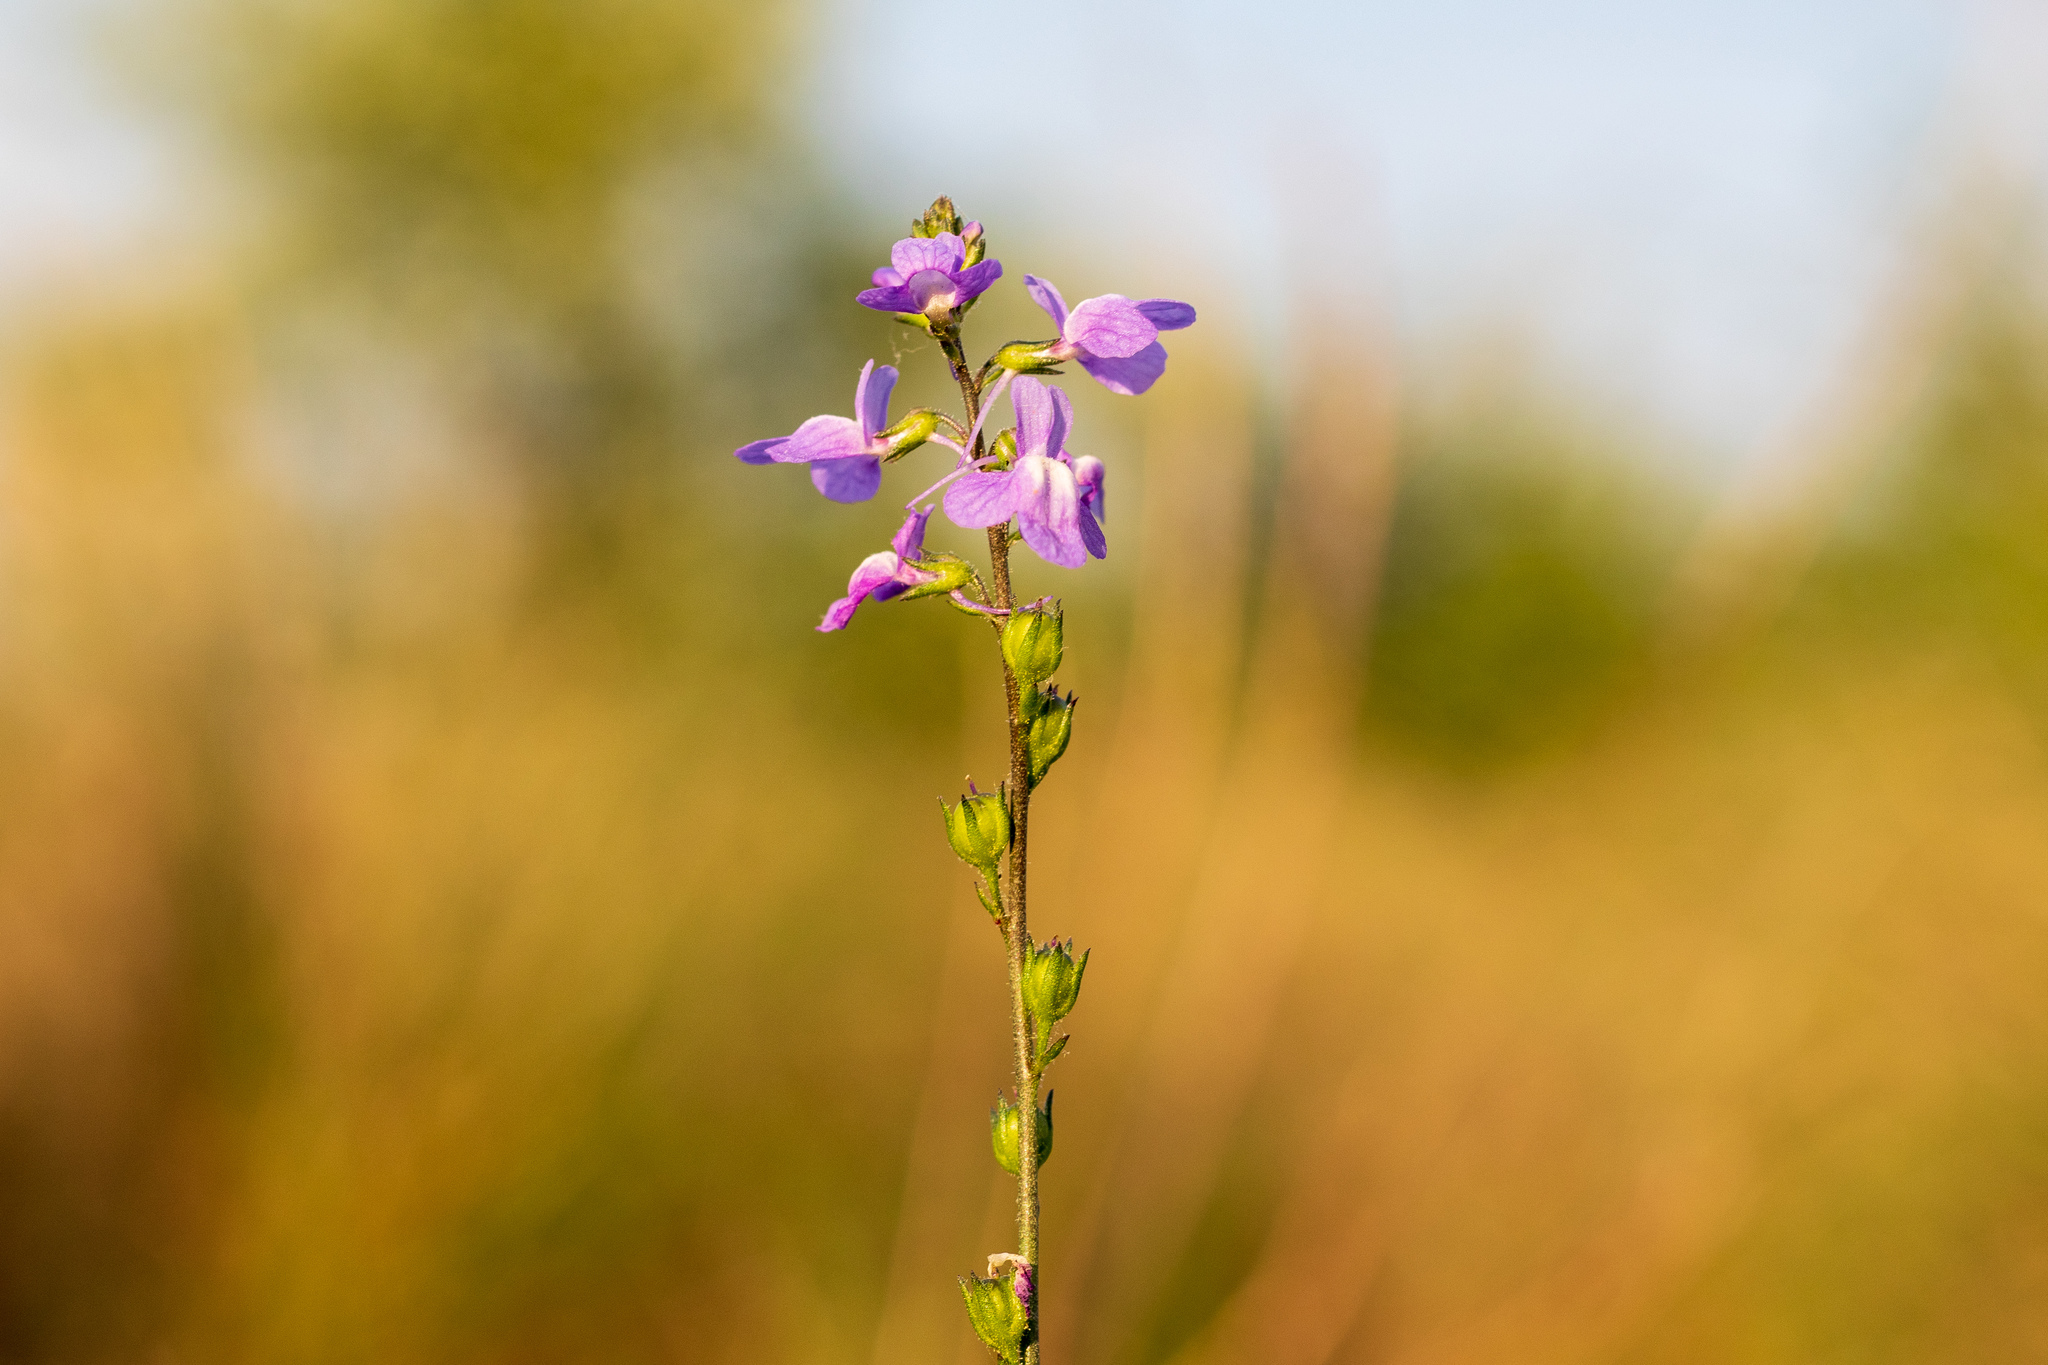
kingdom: Plantae
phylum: Tracheophyta
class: Magnoliopsida
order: Lamiales
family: Plantaginaceae
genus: Nuttallanthus
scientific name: Nuttallanthus canadensis
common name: Blue toadflax
